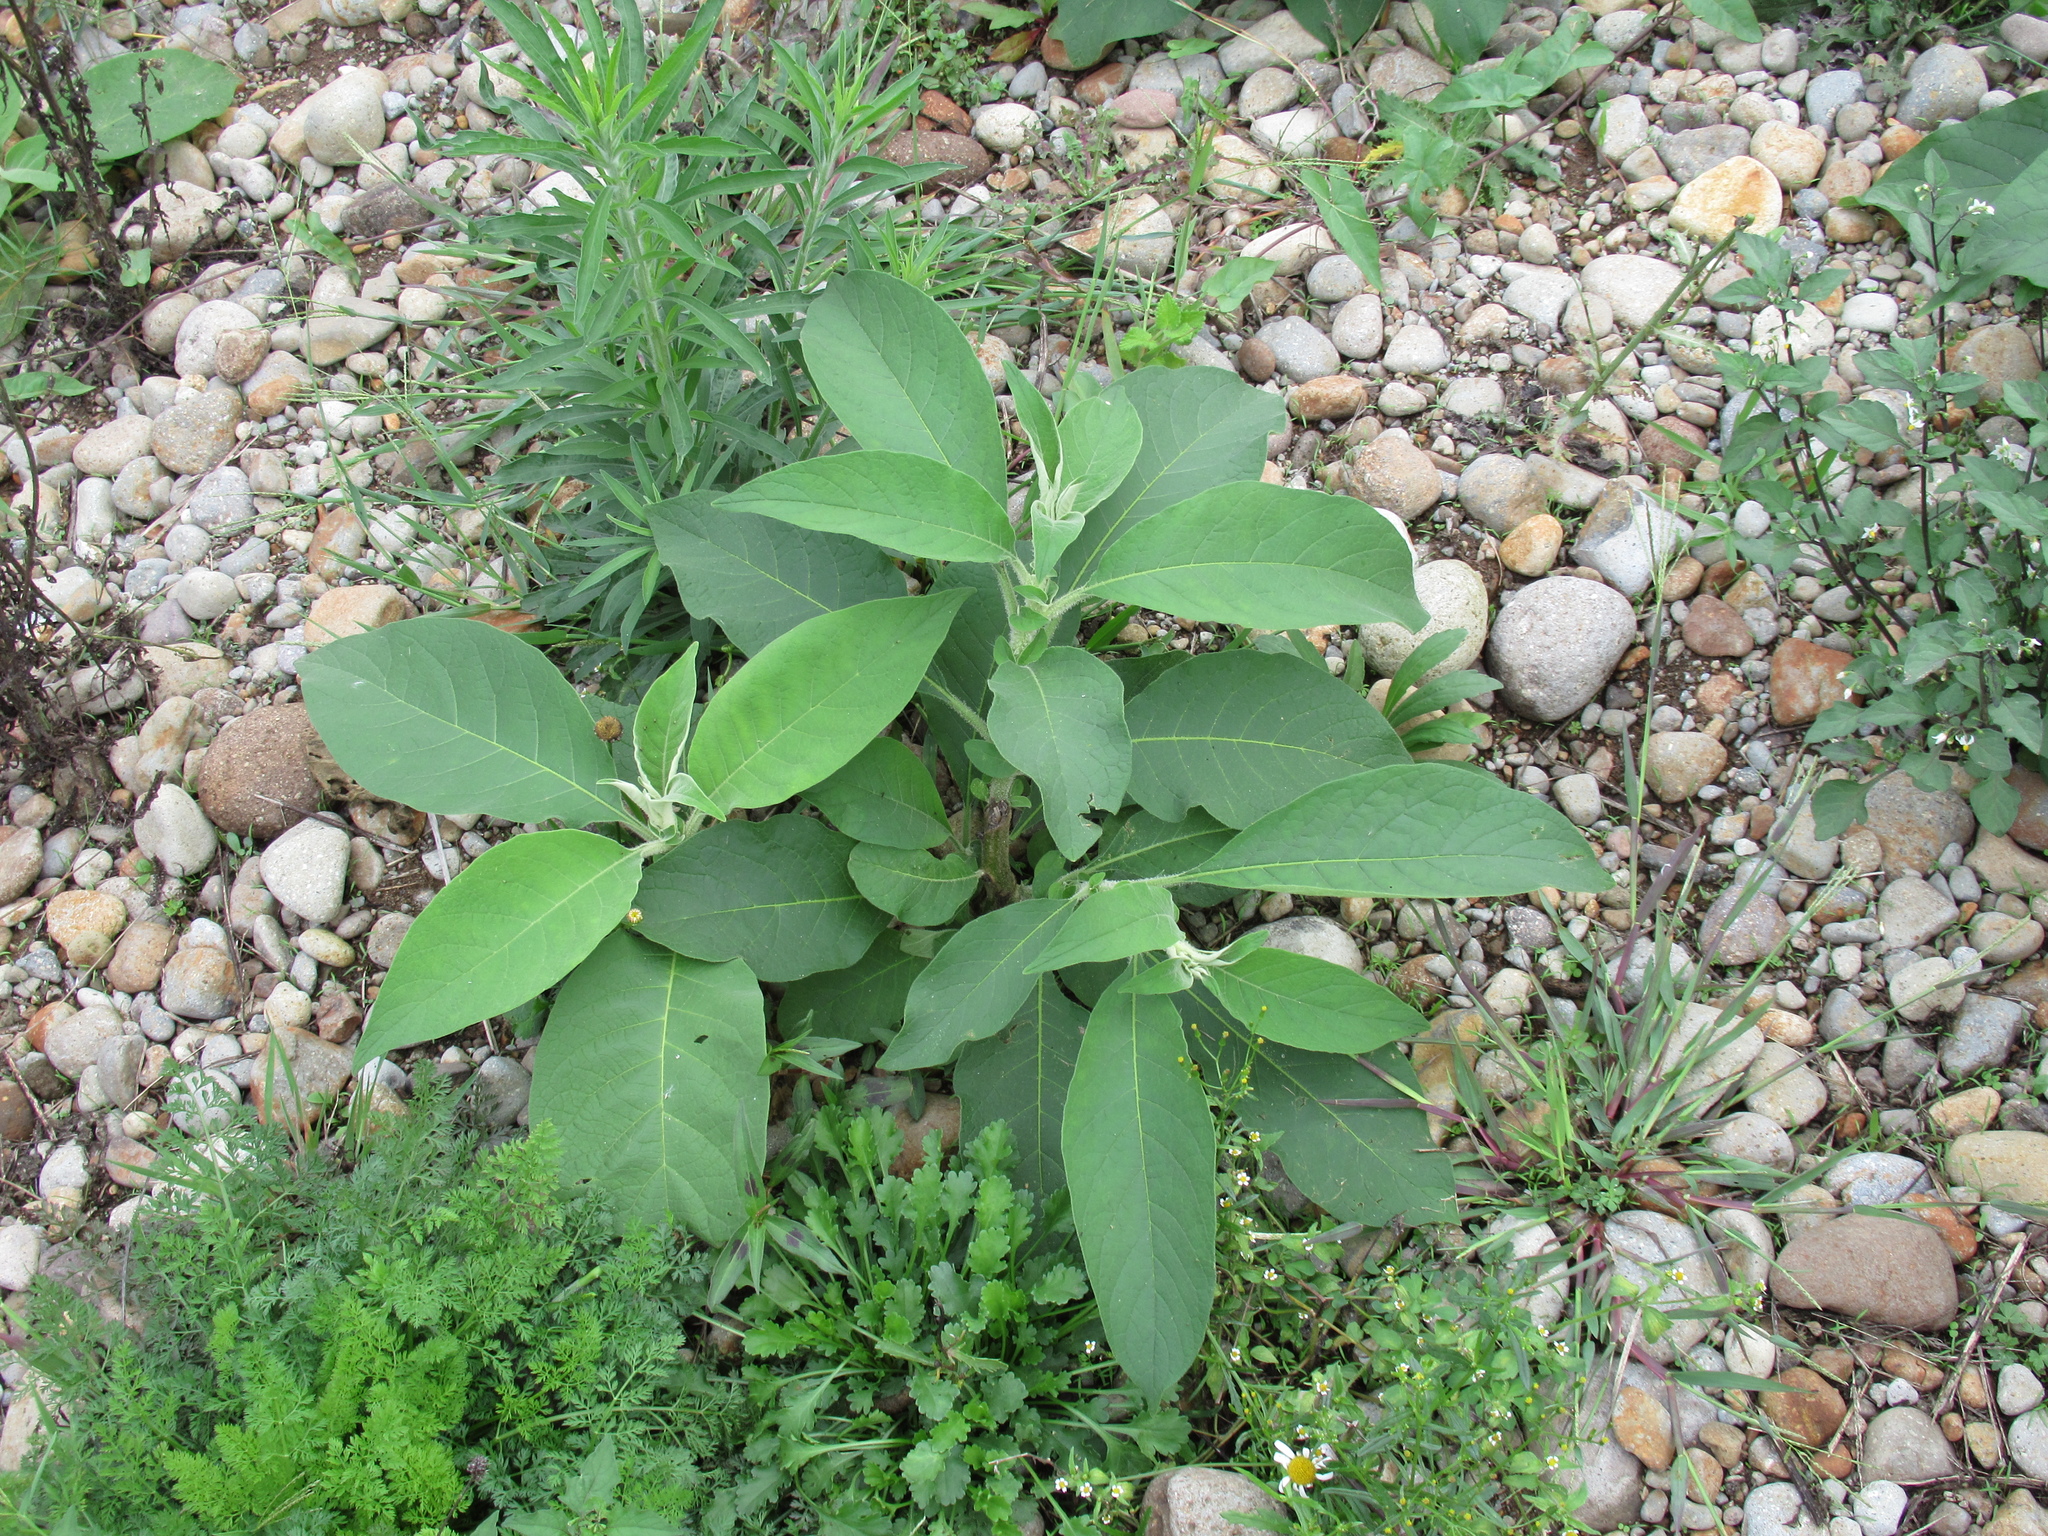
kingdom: Plantae
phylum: Tracheophyta
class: Magnoliopsida
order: Solanales
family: Solanaceae
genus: Solanum
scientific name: Solanum mauritianum
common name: Earleaf nightshade
